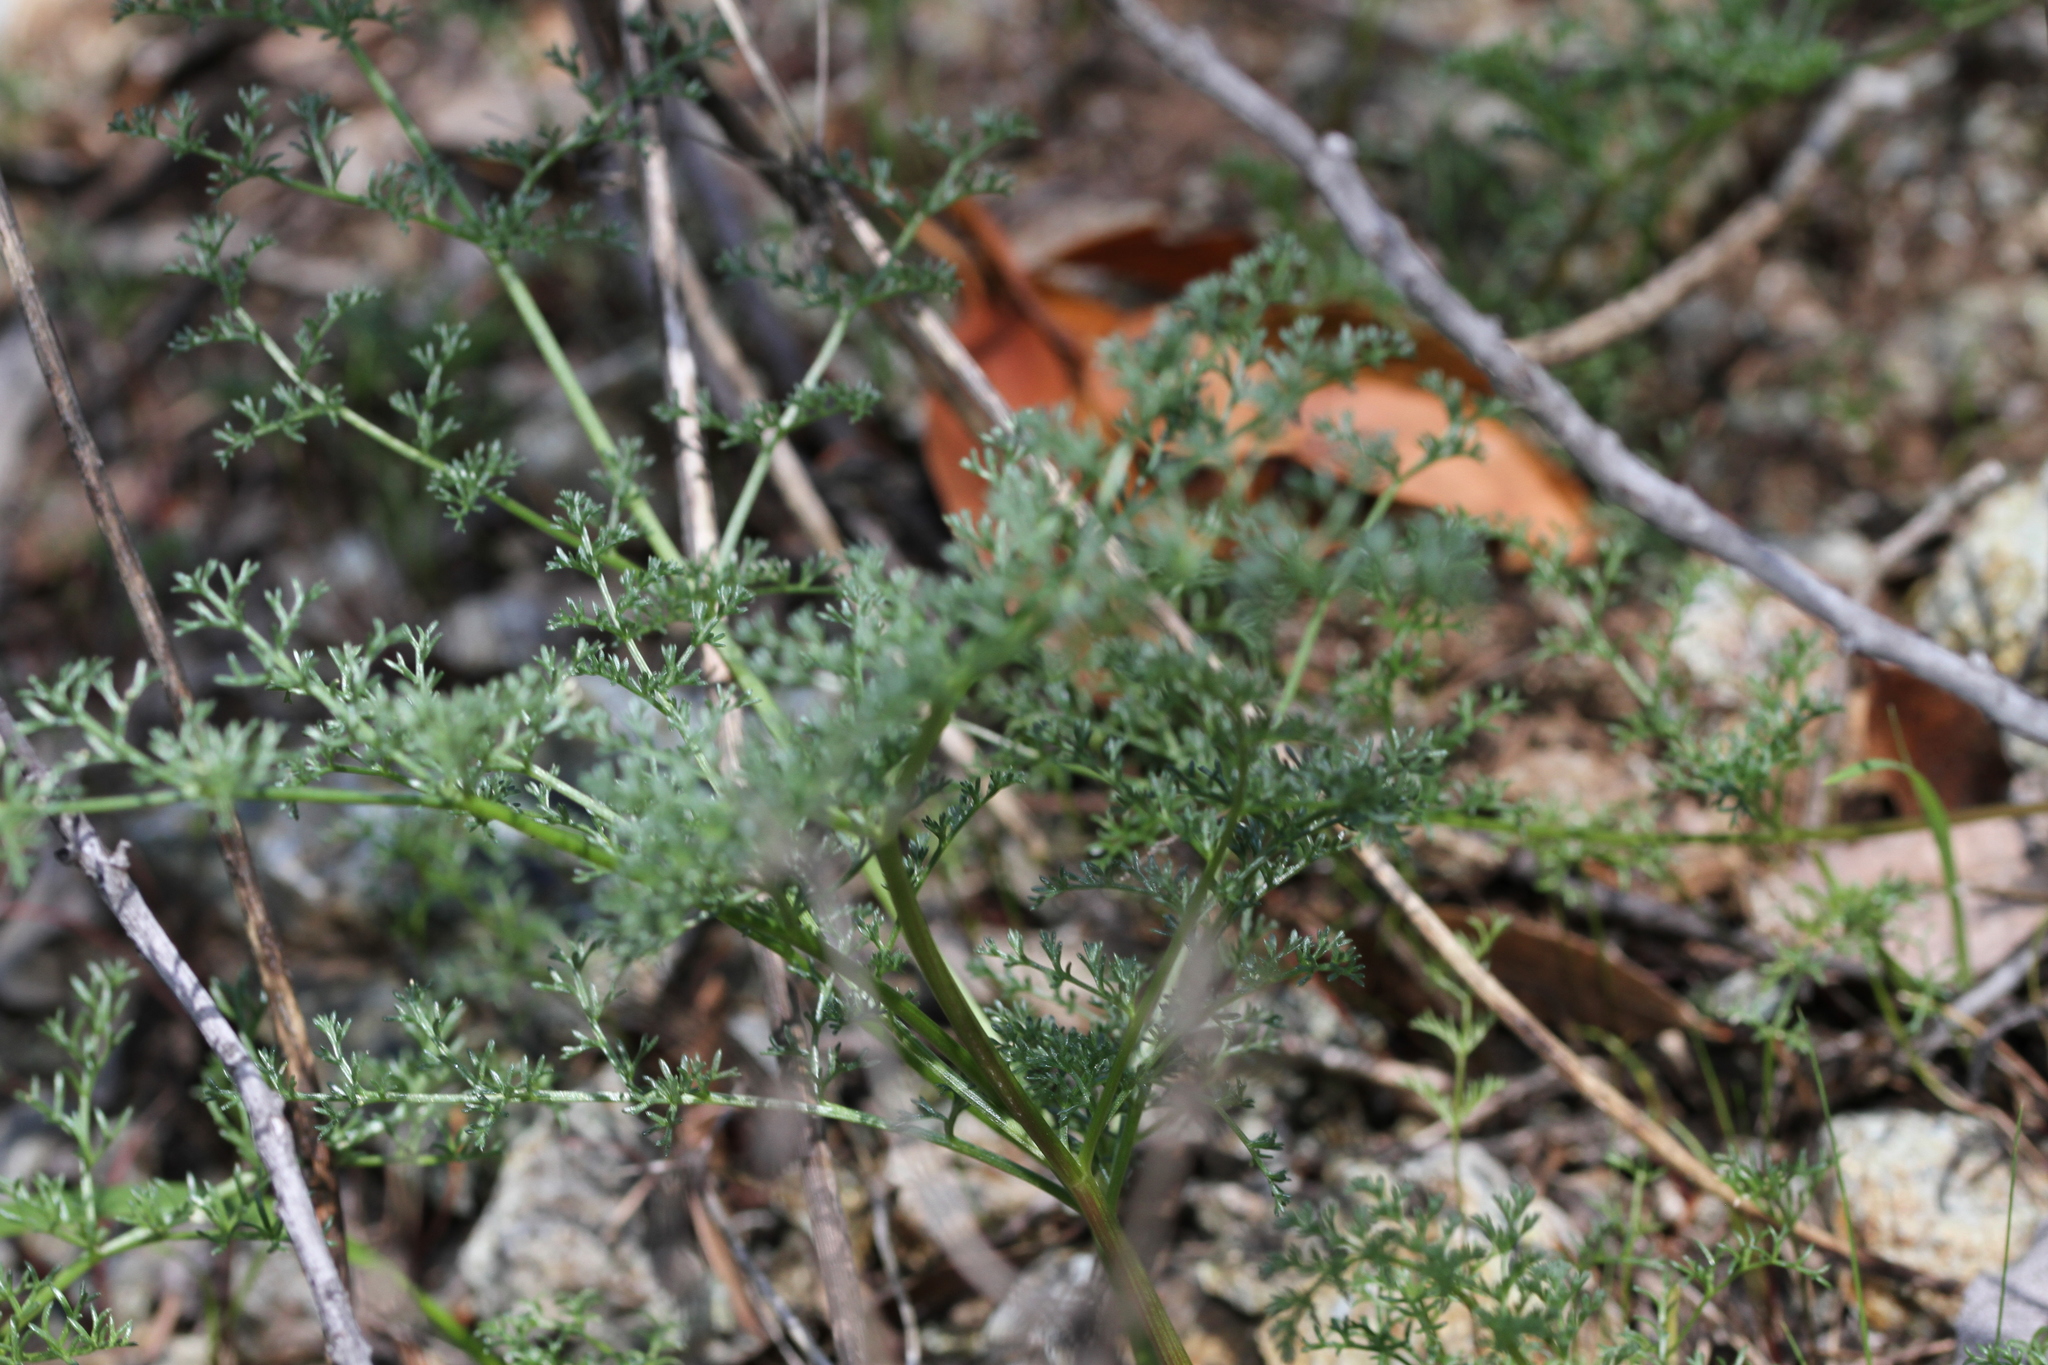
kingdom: Plantae
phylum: Tracheophyta
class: Magnoliopsida
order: Apiales
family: Apiaceae
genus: Lomatium
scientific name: Lomatium dasycarpum
